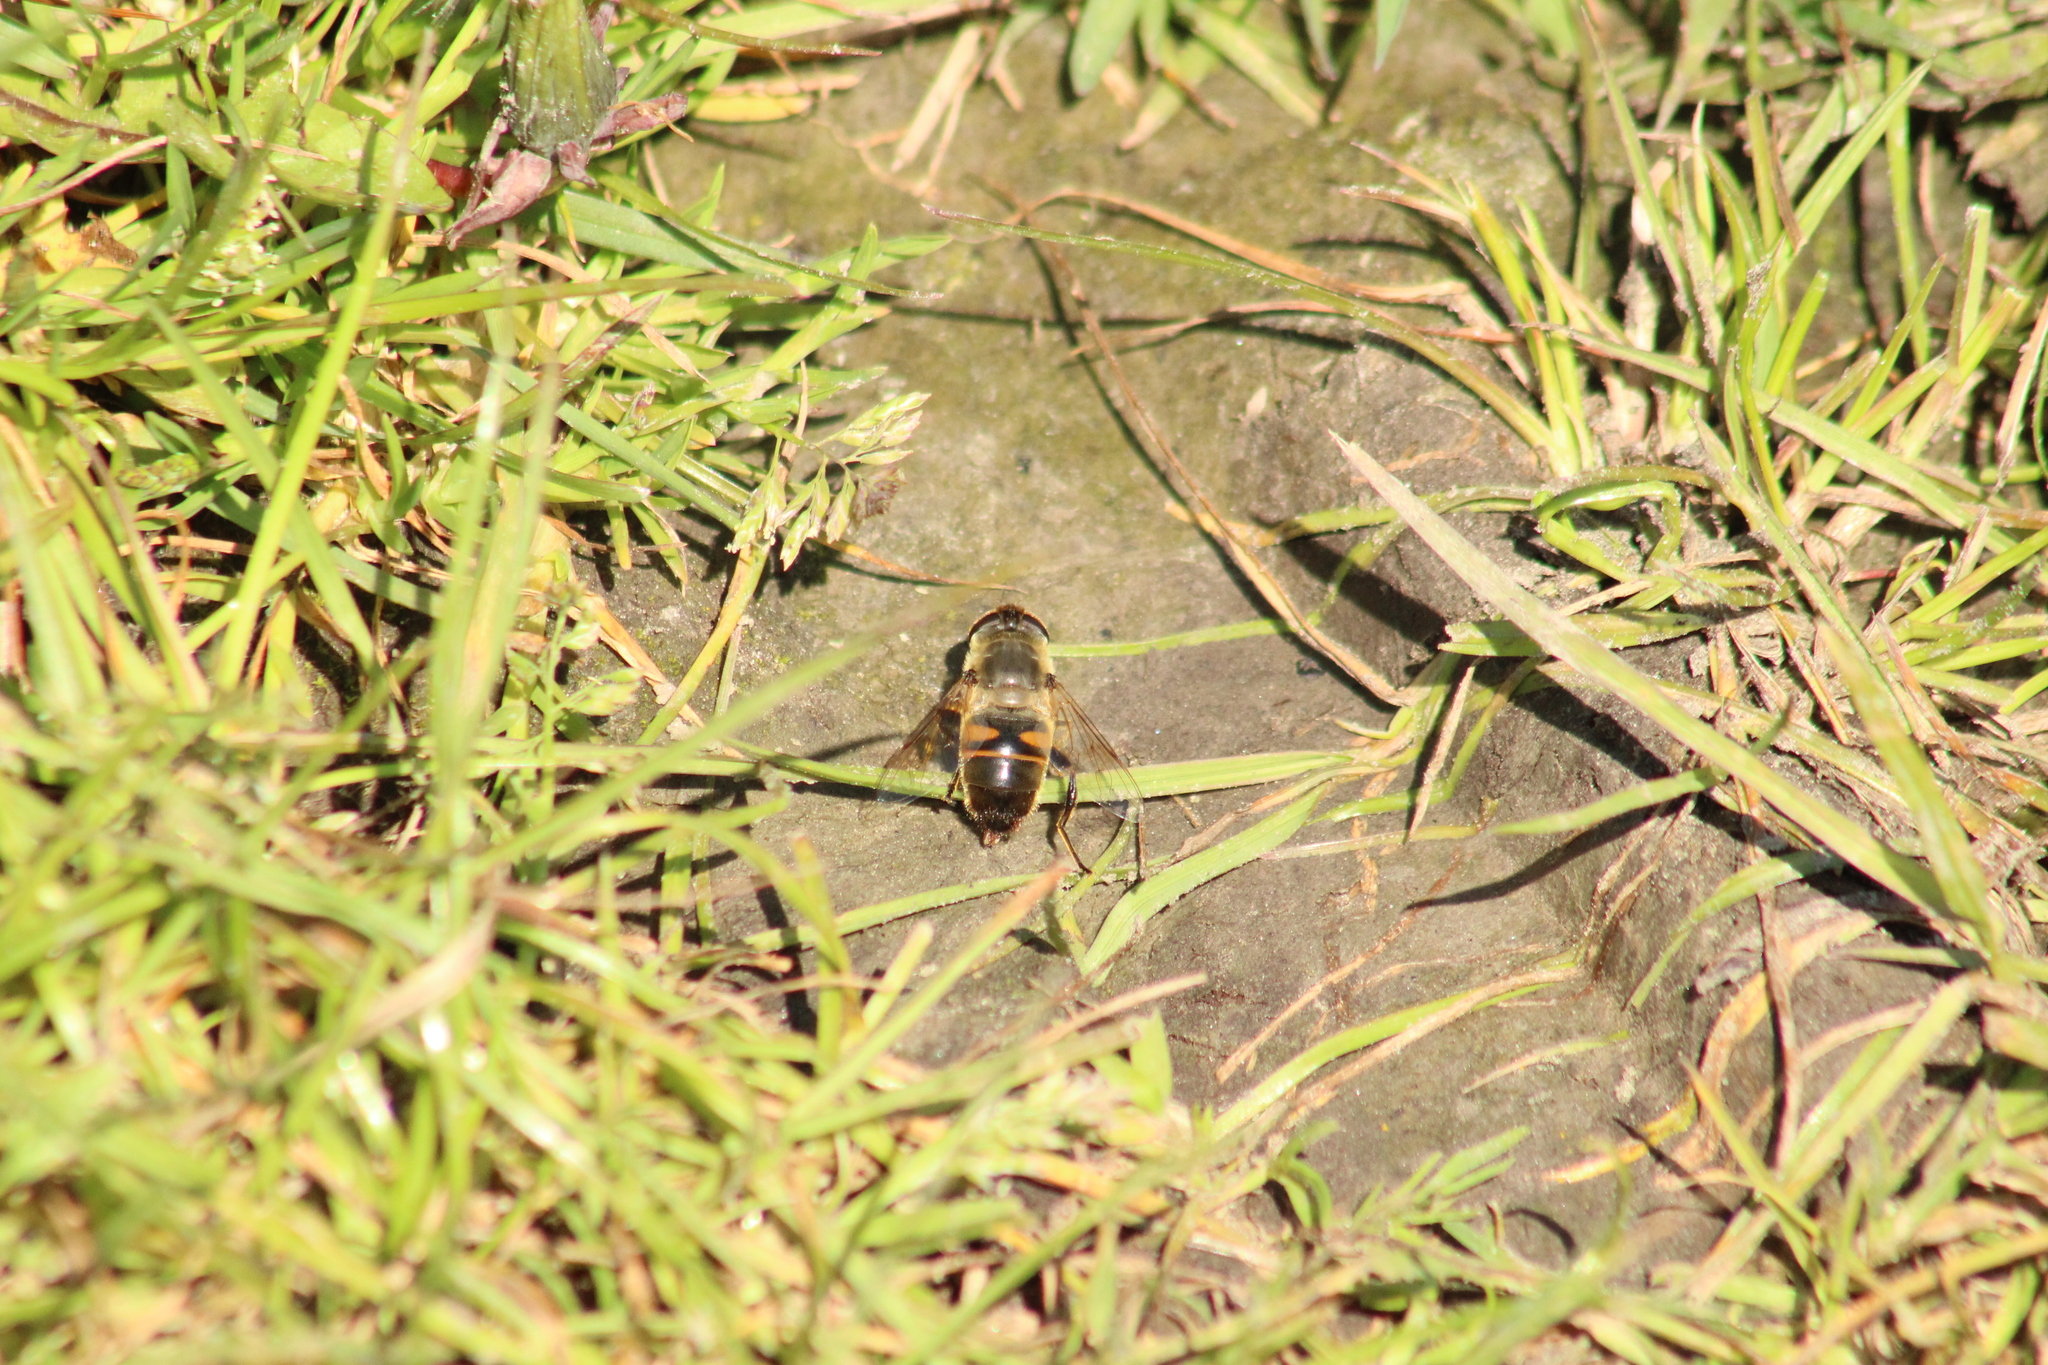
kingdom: Animalia
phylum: Arthropoda
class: Insecta
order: Diptera
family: Syrphidae
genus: Eristalis
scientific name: Eristalis tenax
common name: Drone fly
